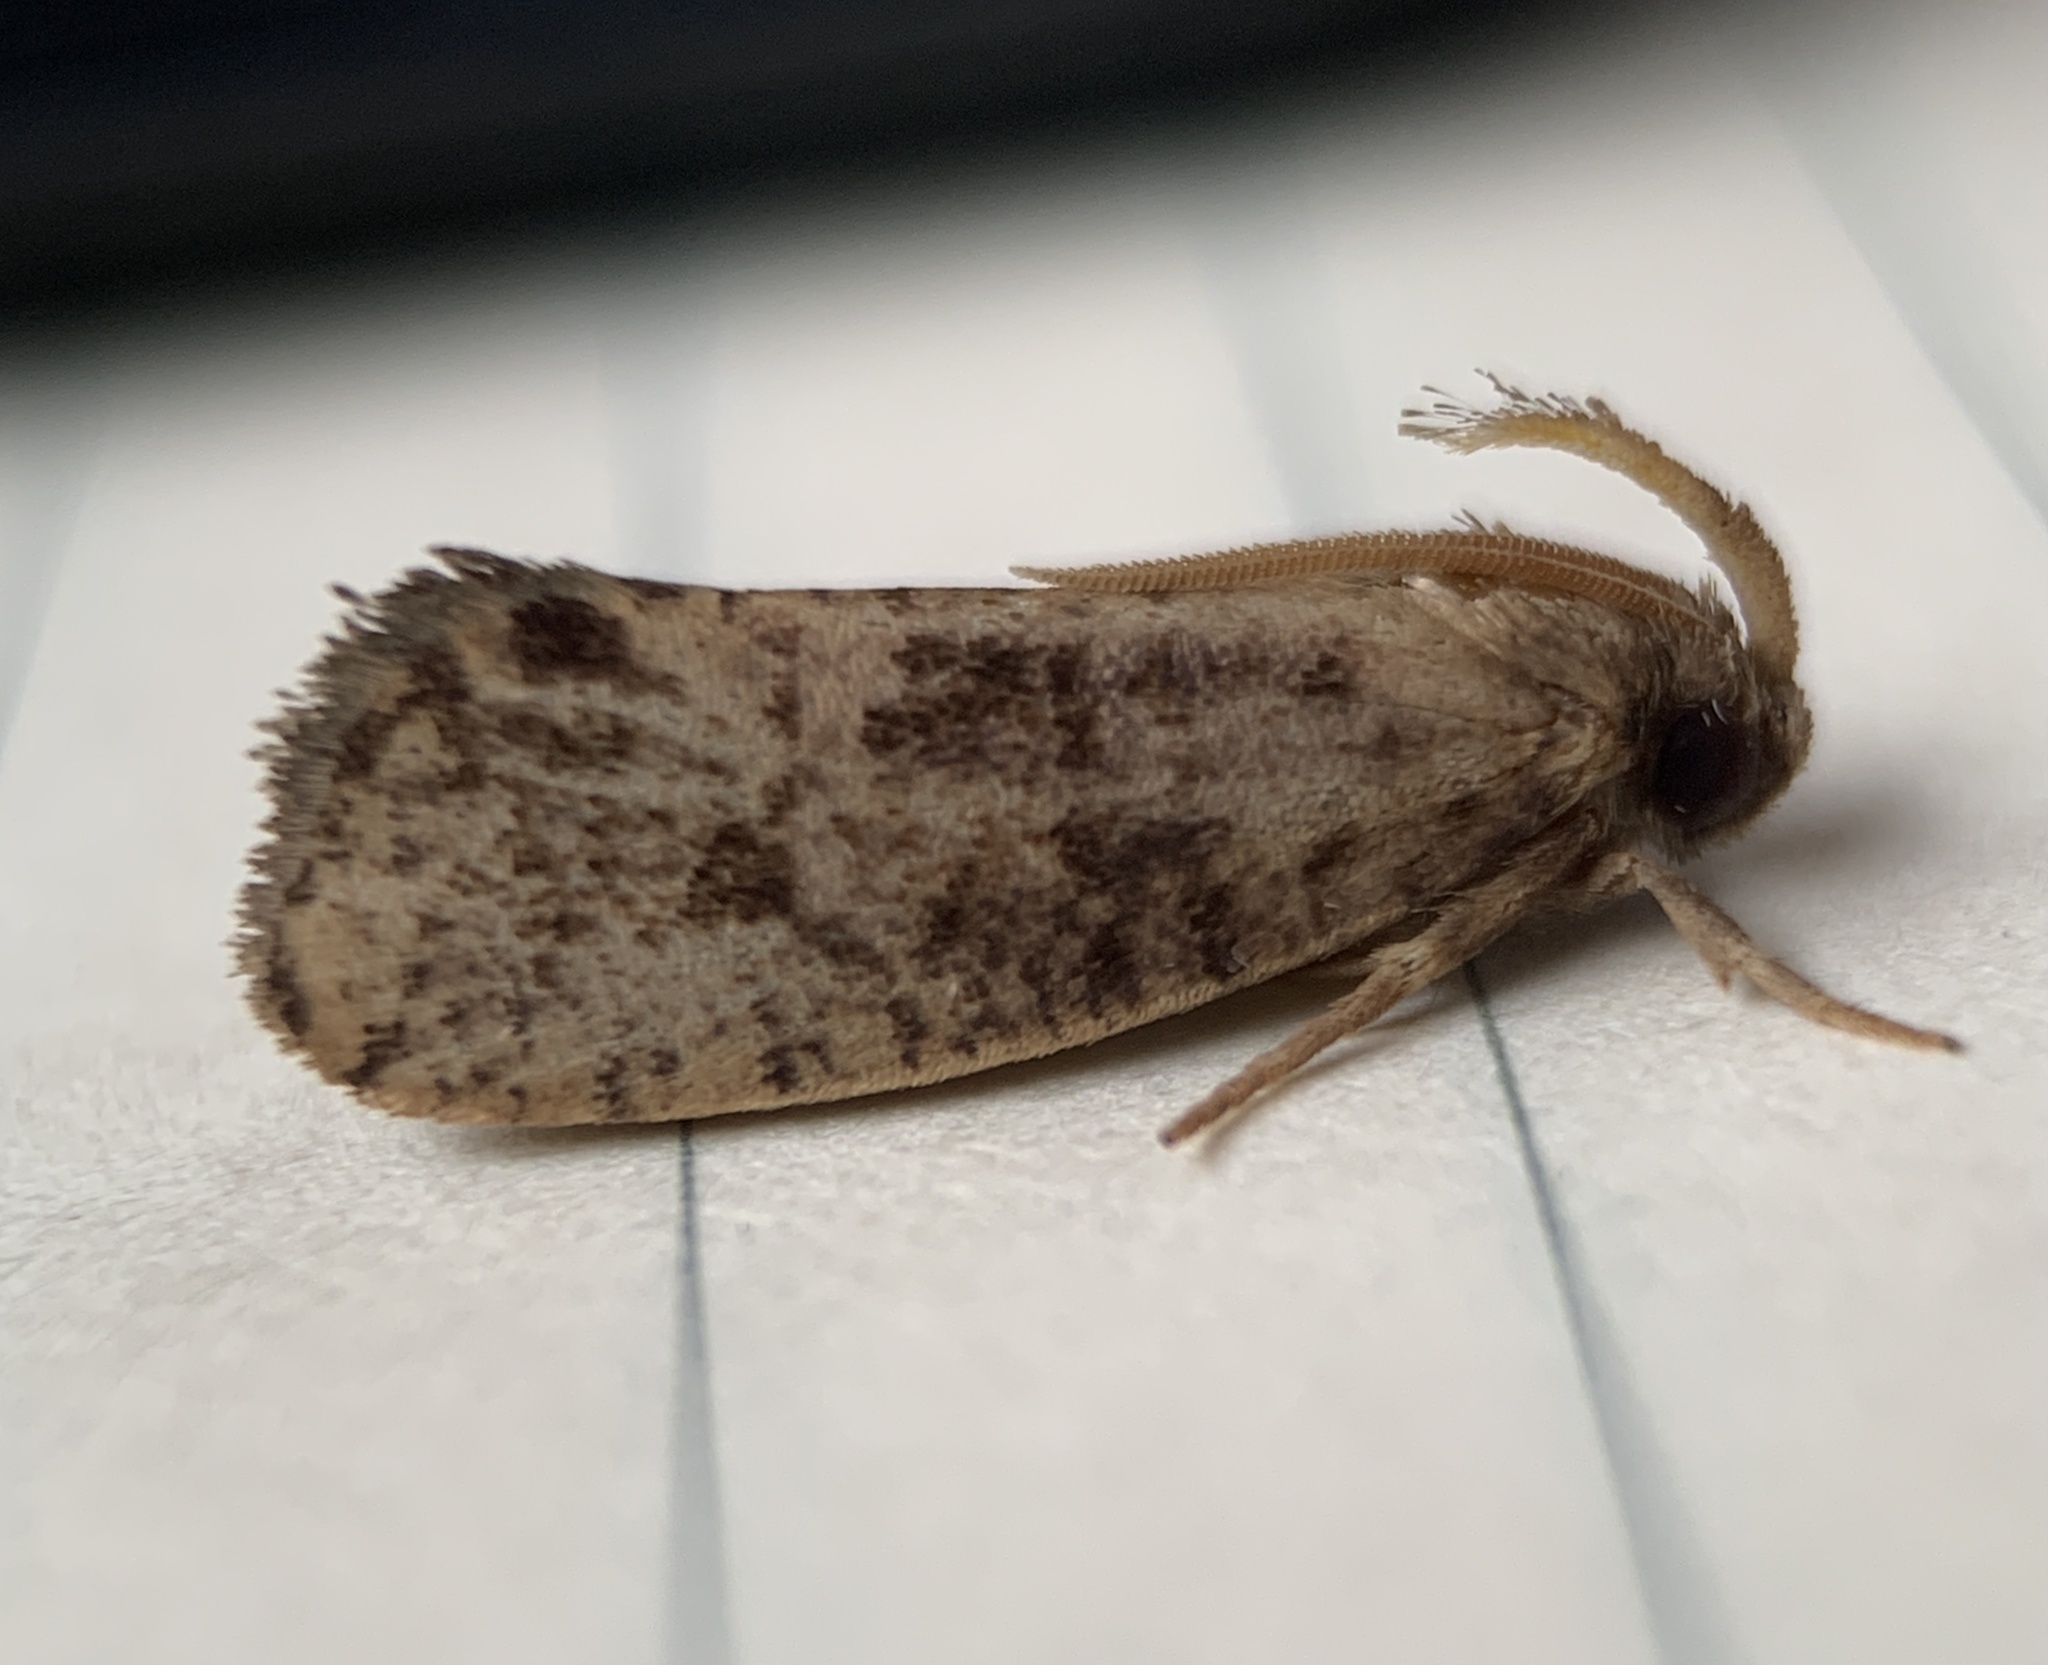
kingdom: Animalia
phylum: Arthropoda
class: Insecta
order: Lepidoptera
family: Tineidae
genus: Acrolophus
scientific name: Acrolophus propinqua
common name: Walsingham's grass tubeworm moth
